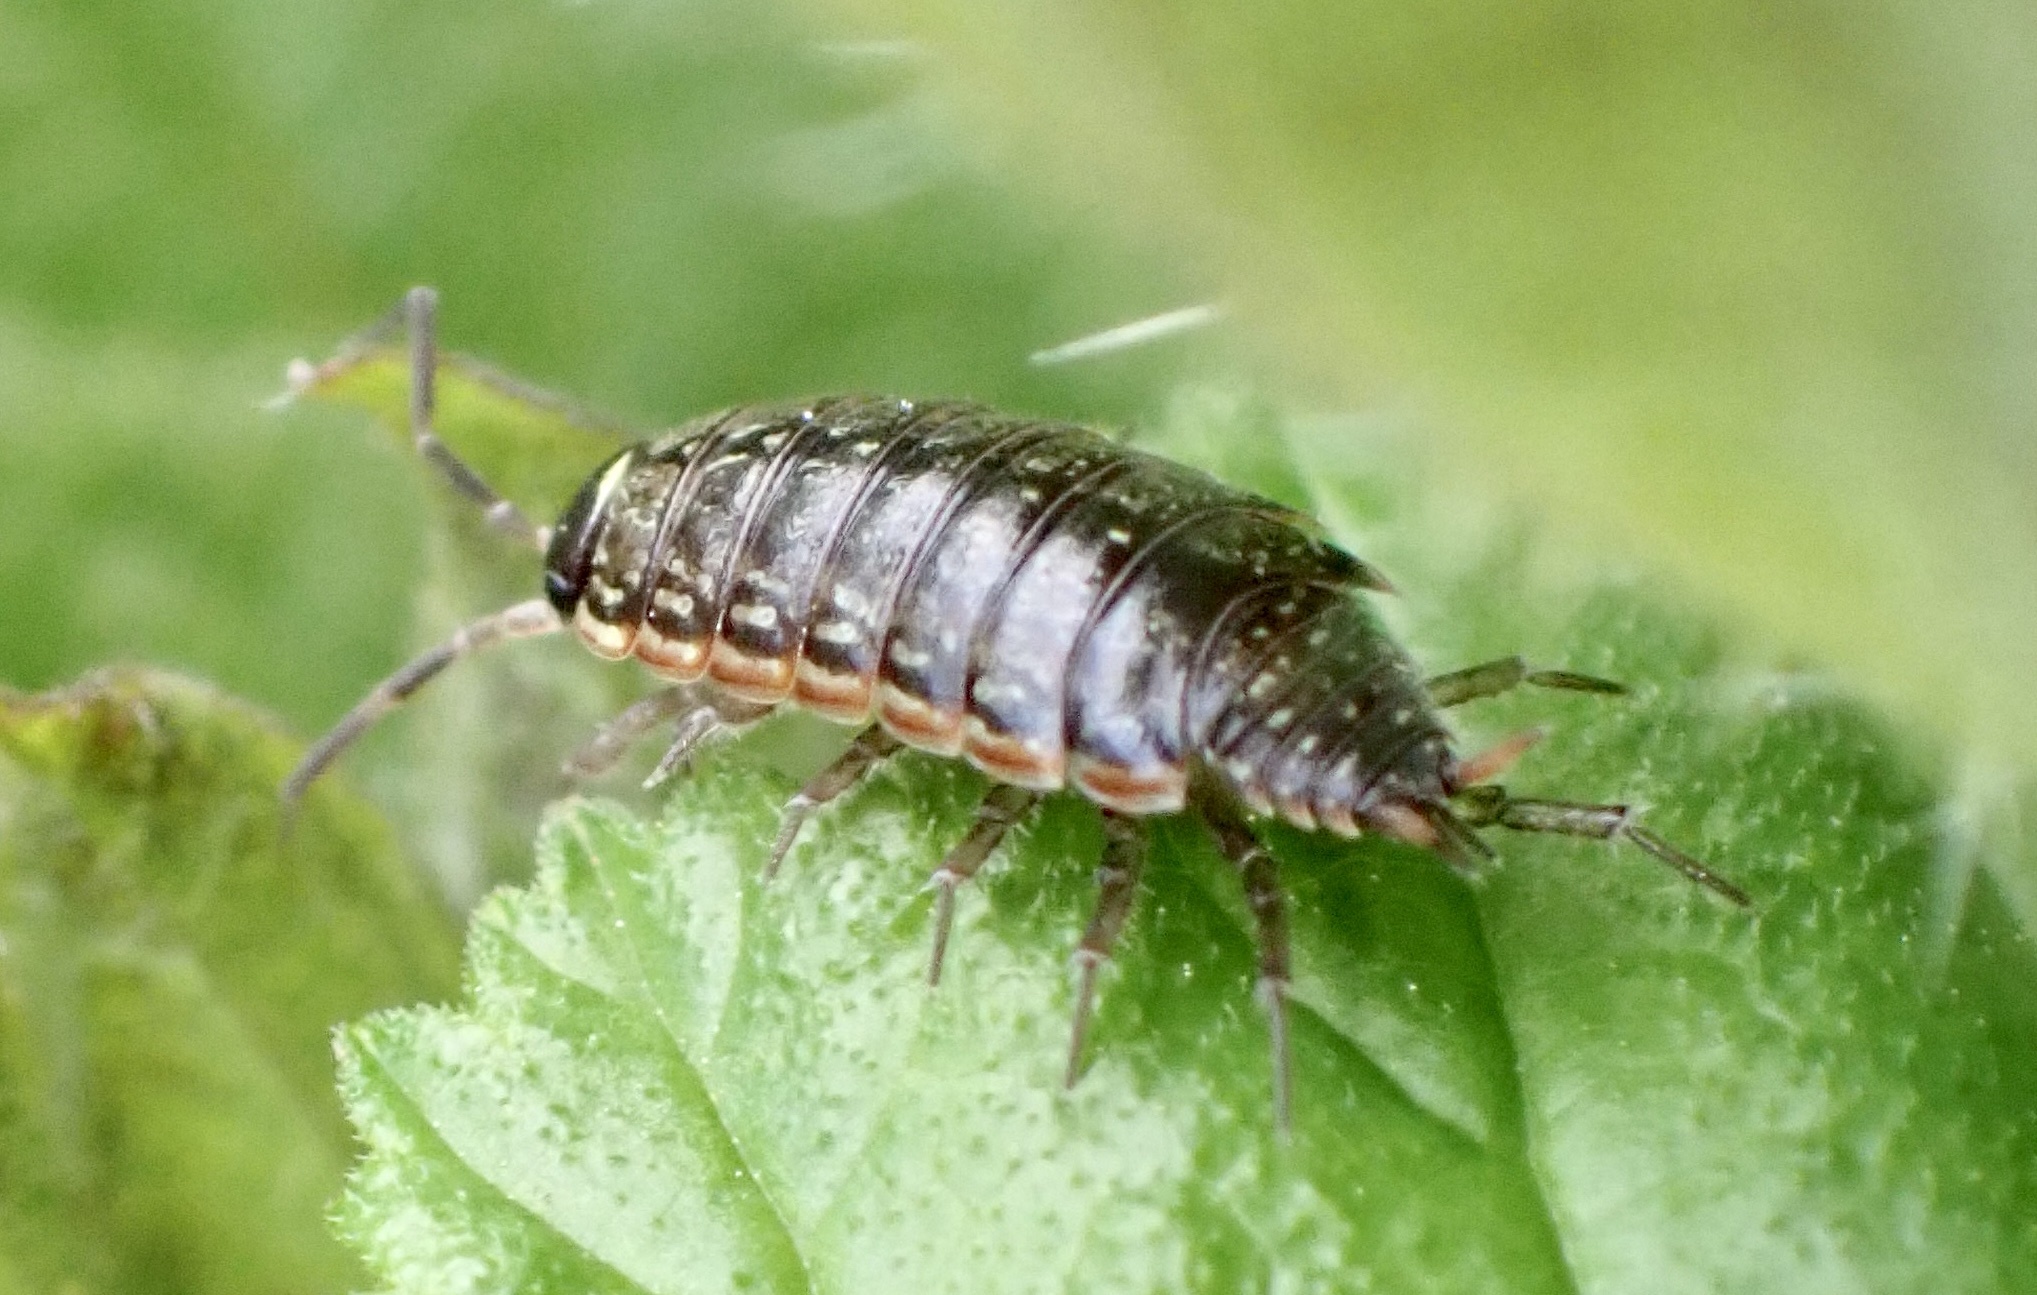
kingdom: Animalia
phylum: Arthropoda
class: Malacostraca
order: Isopoda
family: Philosciidae
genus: Philoscia
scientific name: Philoscia muscorum
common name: Common striped woodlouse
